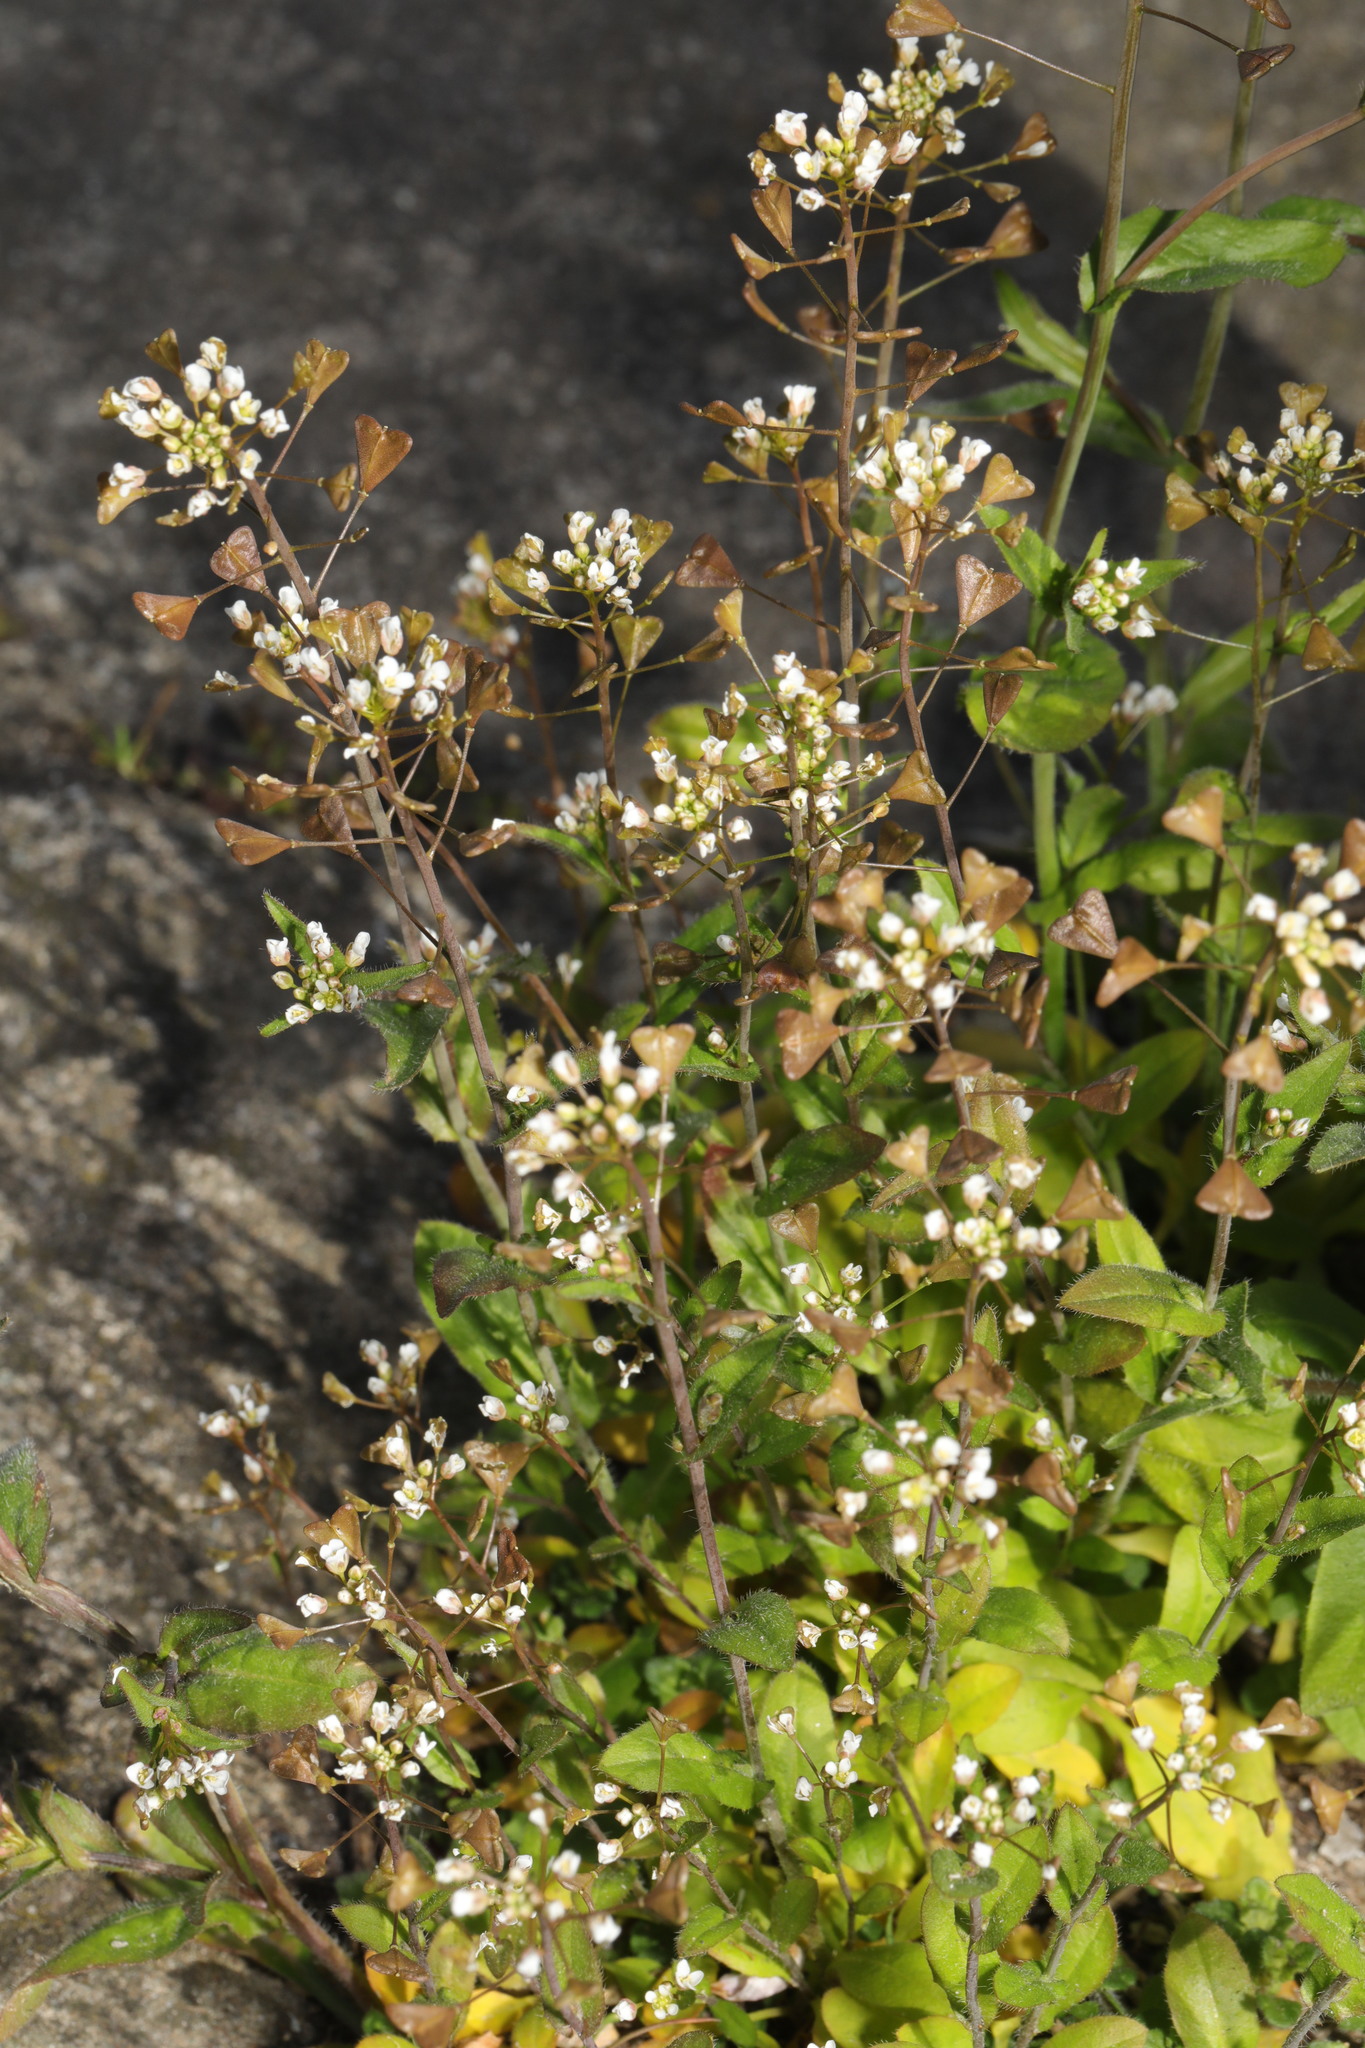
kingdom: Plantae
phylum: Tracheophyta
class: Magnoliopsida
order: Brassicales
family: Brassicaceae
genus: Capsella
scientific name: Capsella bursa-pastoris
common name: Shepherd's purse
